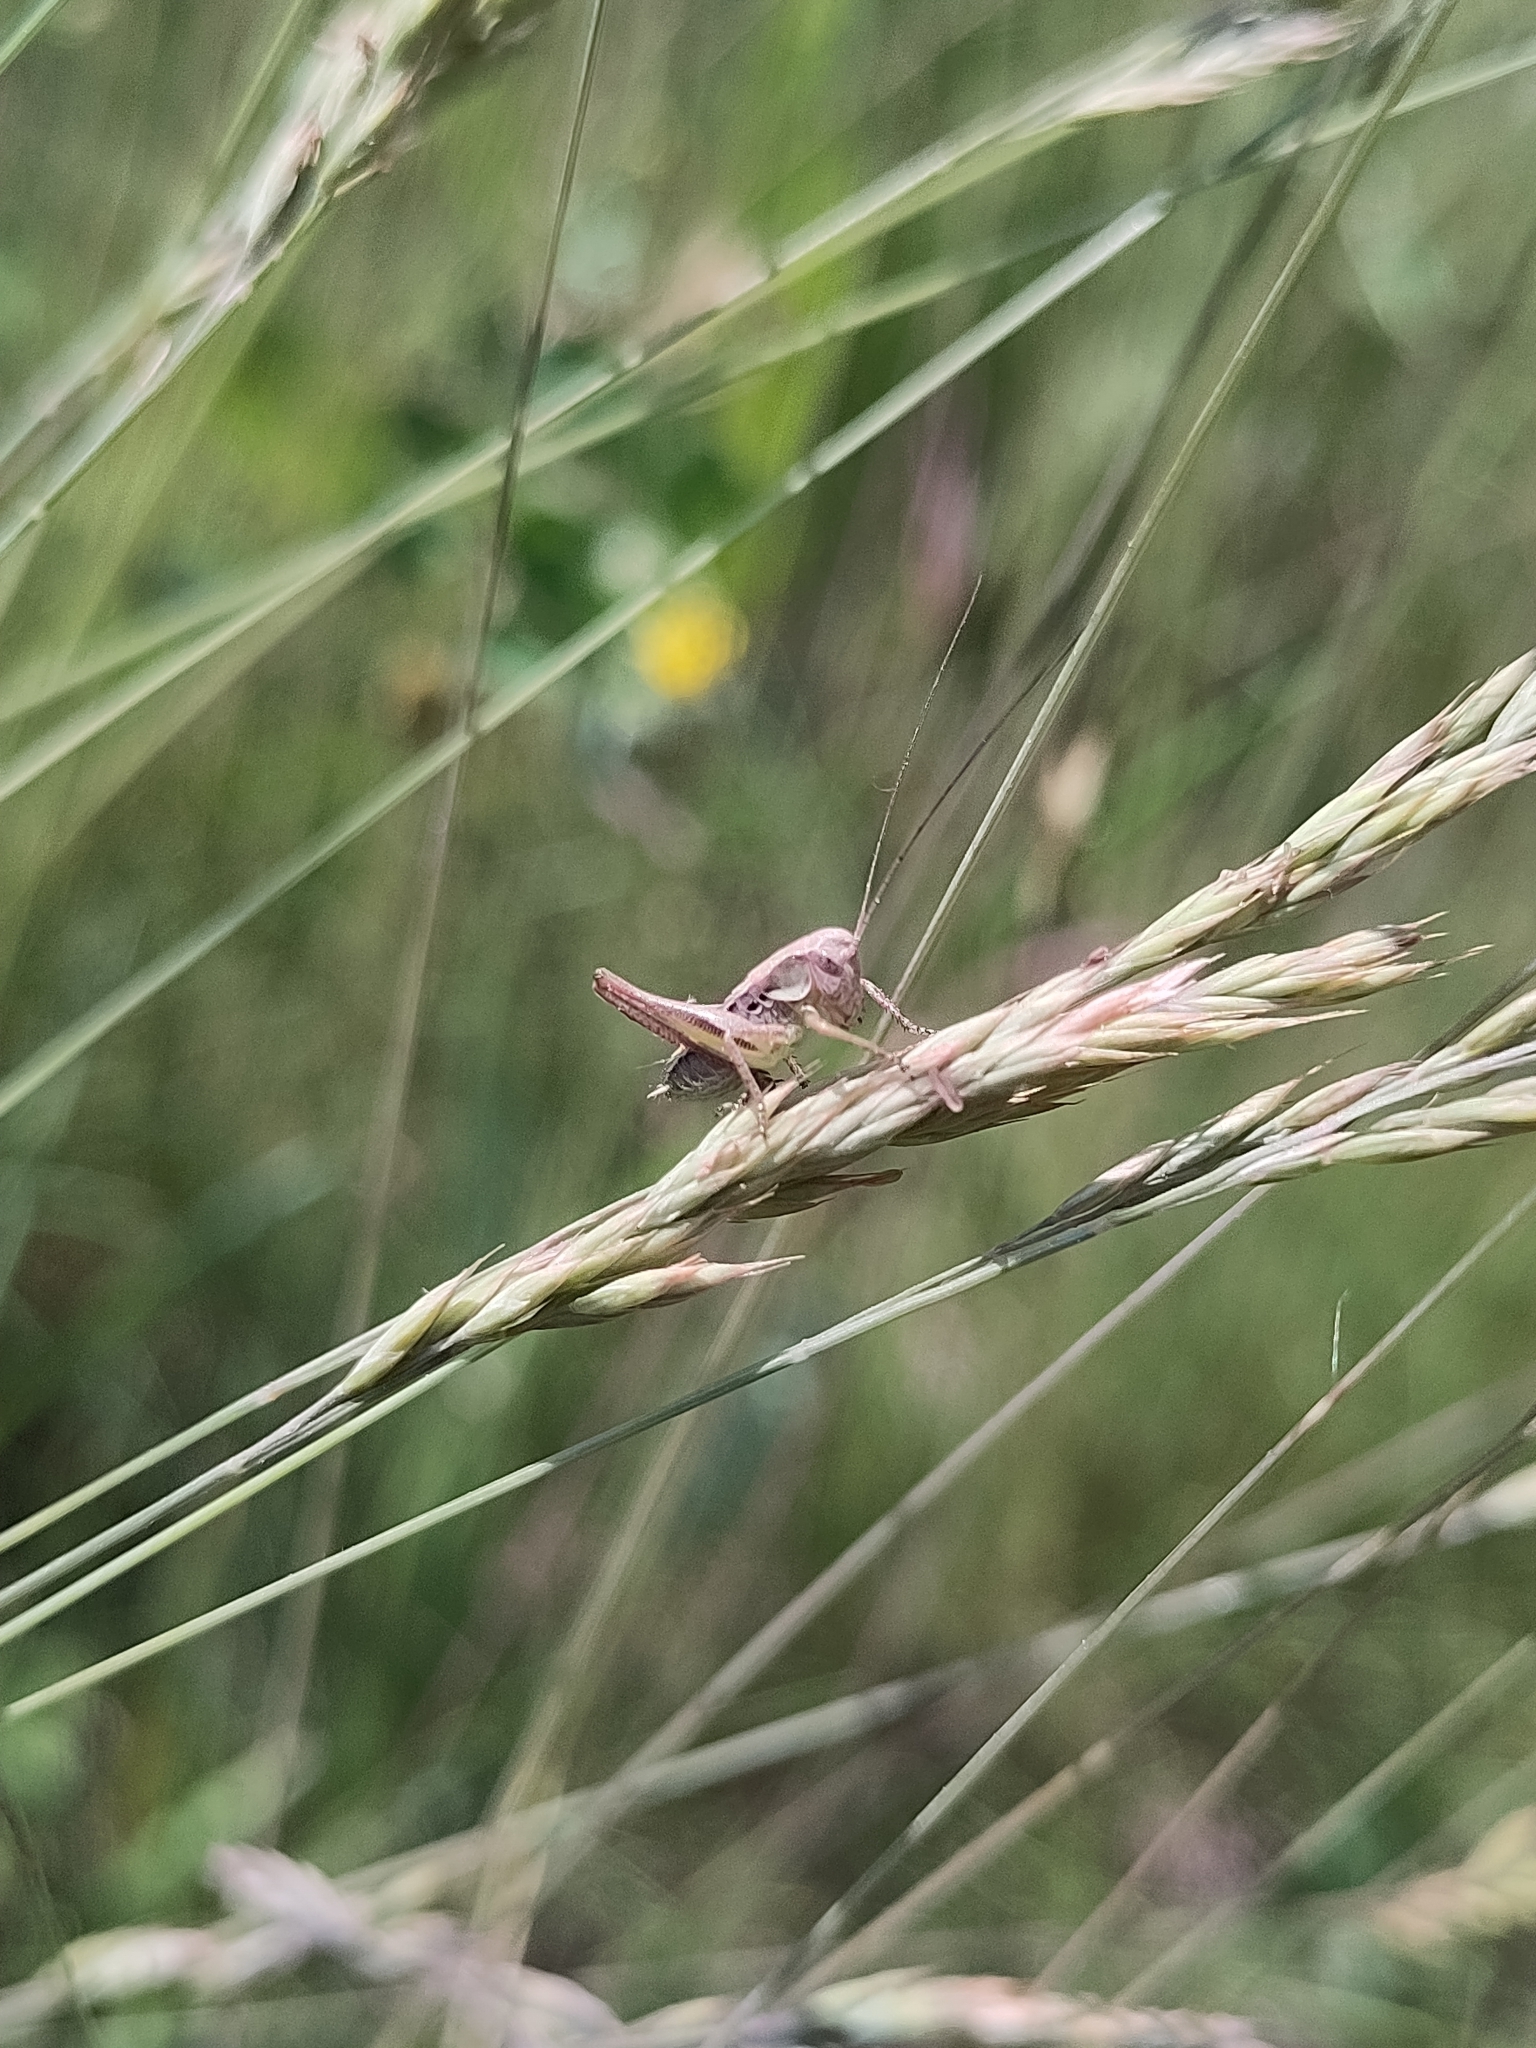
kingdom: Animalia
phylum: Arthropoda
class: Insecta
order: Orthoptera
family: Tettigoniidae
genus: Platycleis
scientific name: Platycleis grisea
